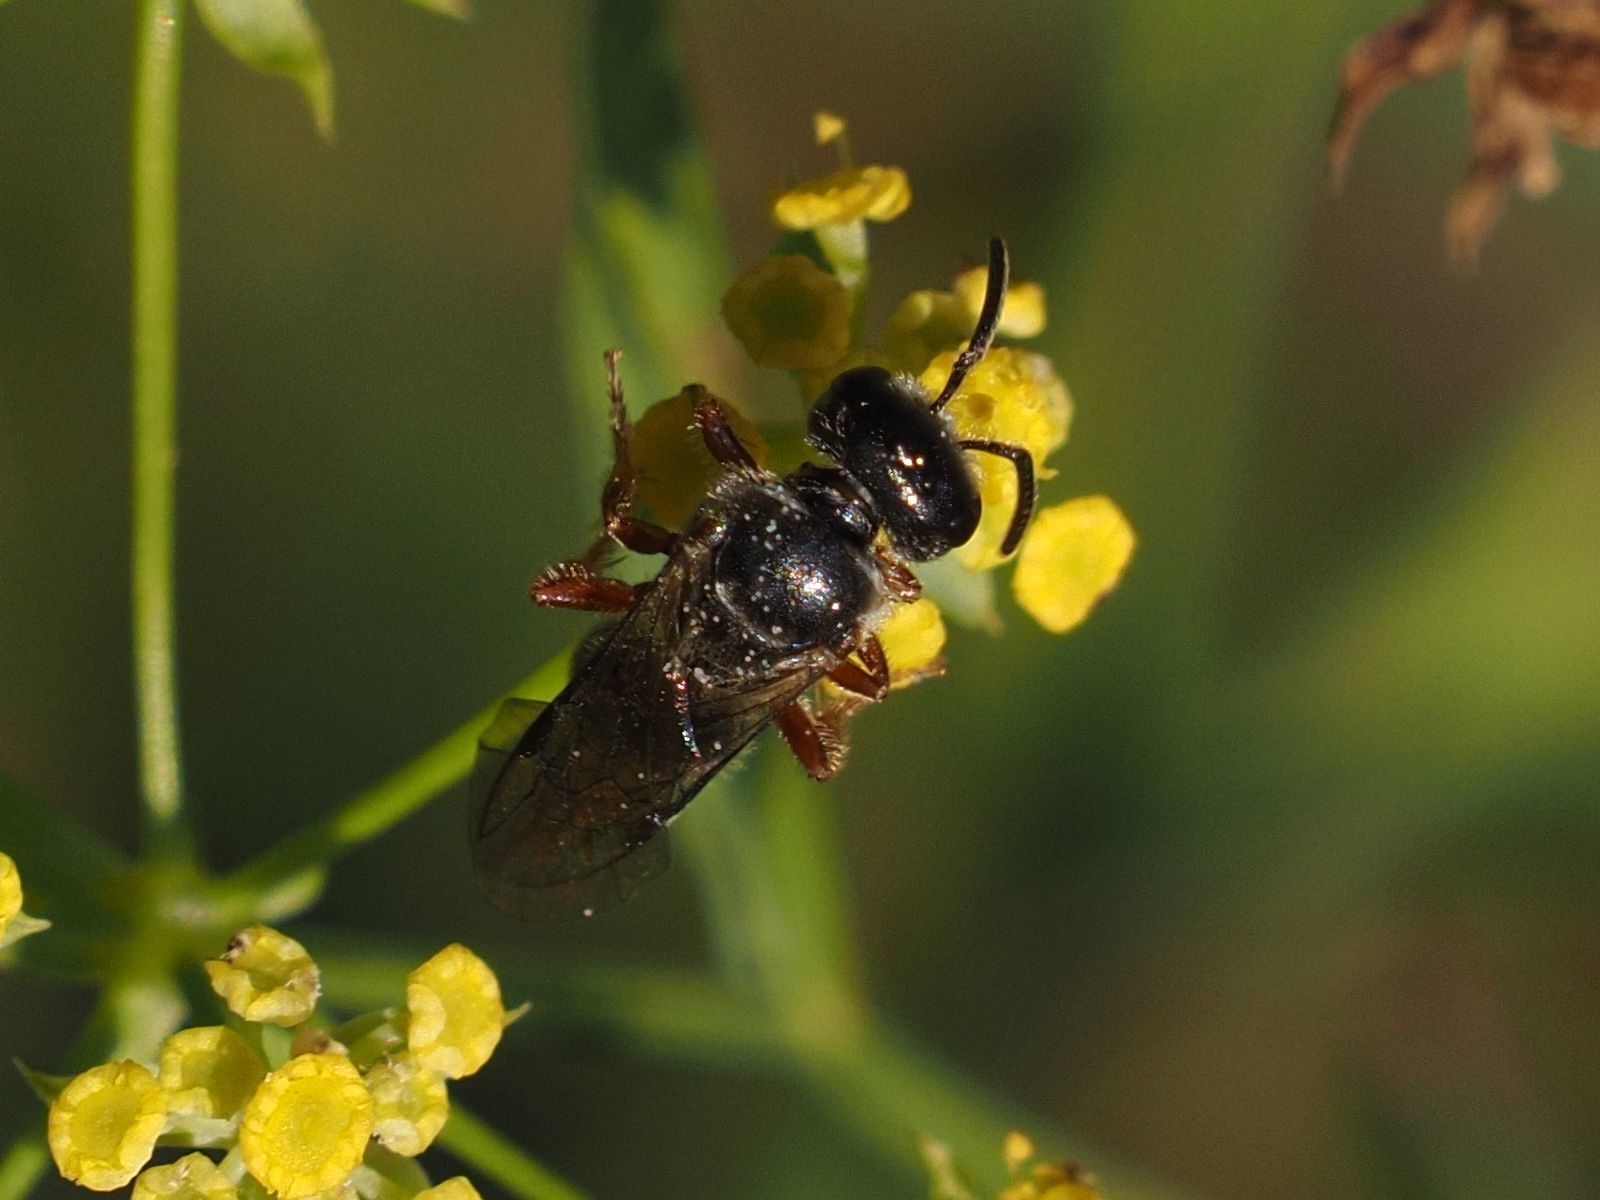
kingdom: Animalia
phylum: Arthropoda
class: Insecta
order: Hymenoptera
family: Halictidae
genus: Lasioglossum
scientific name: Lasioglossum bluethgeni
